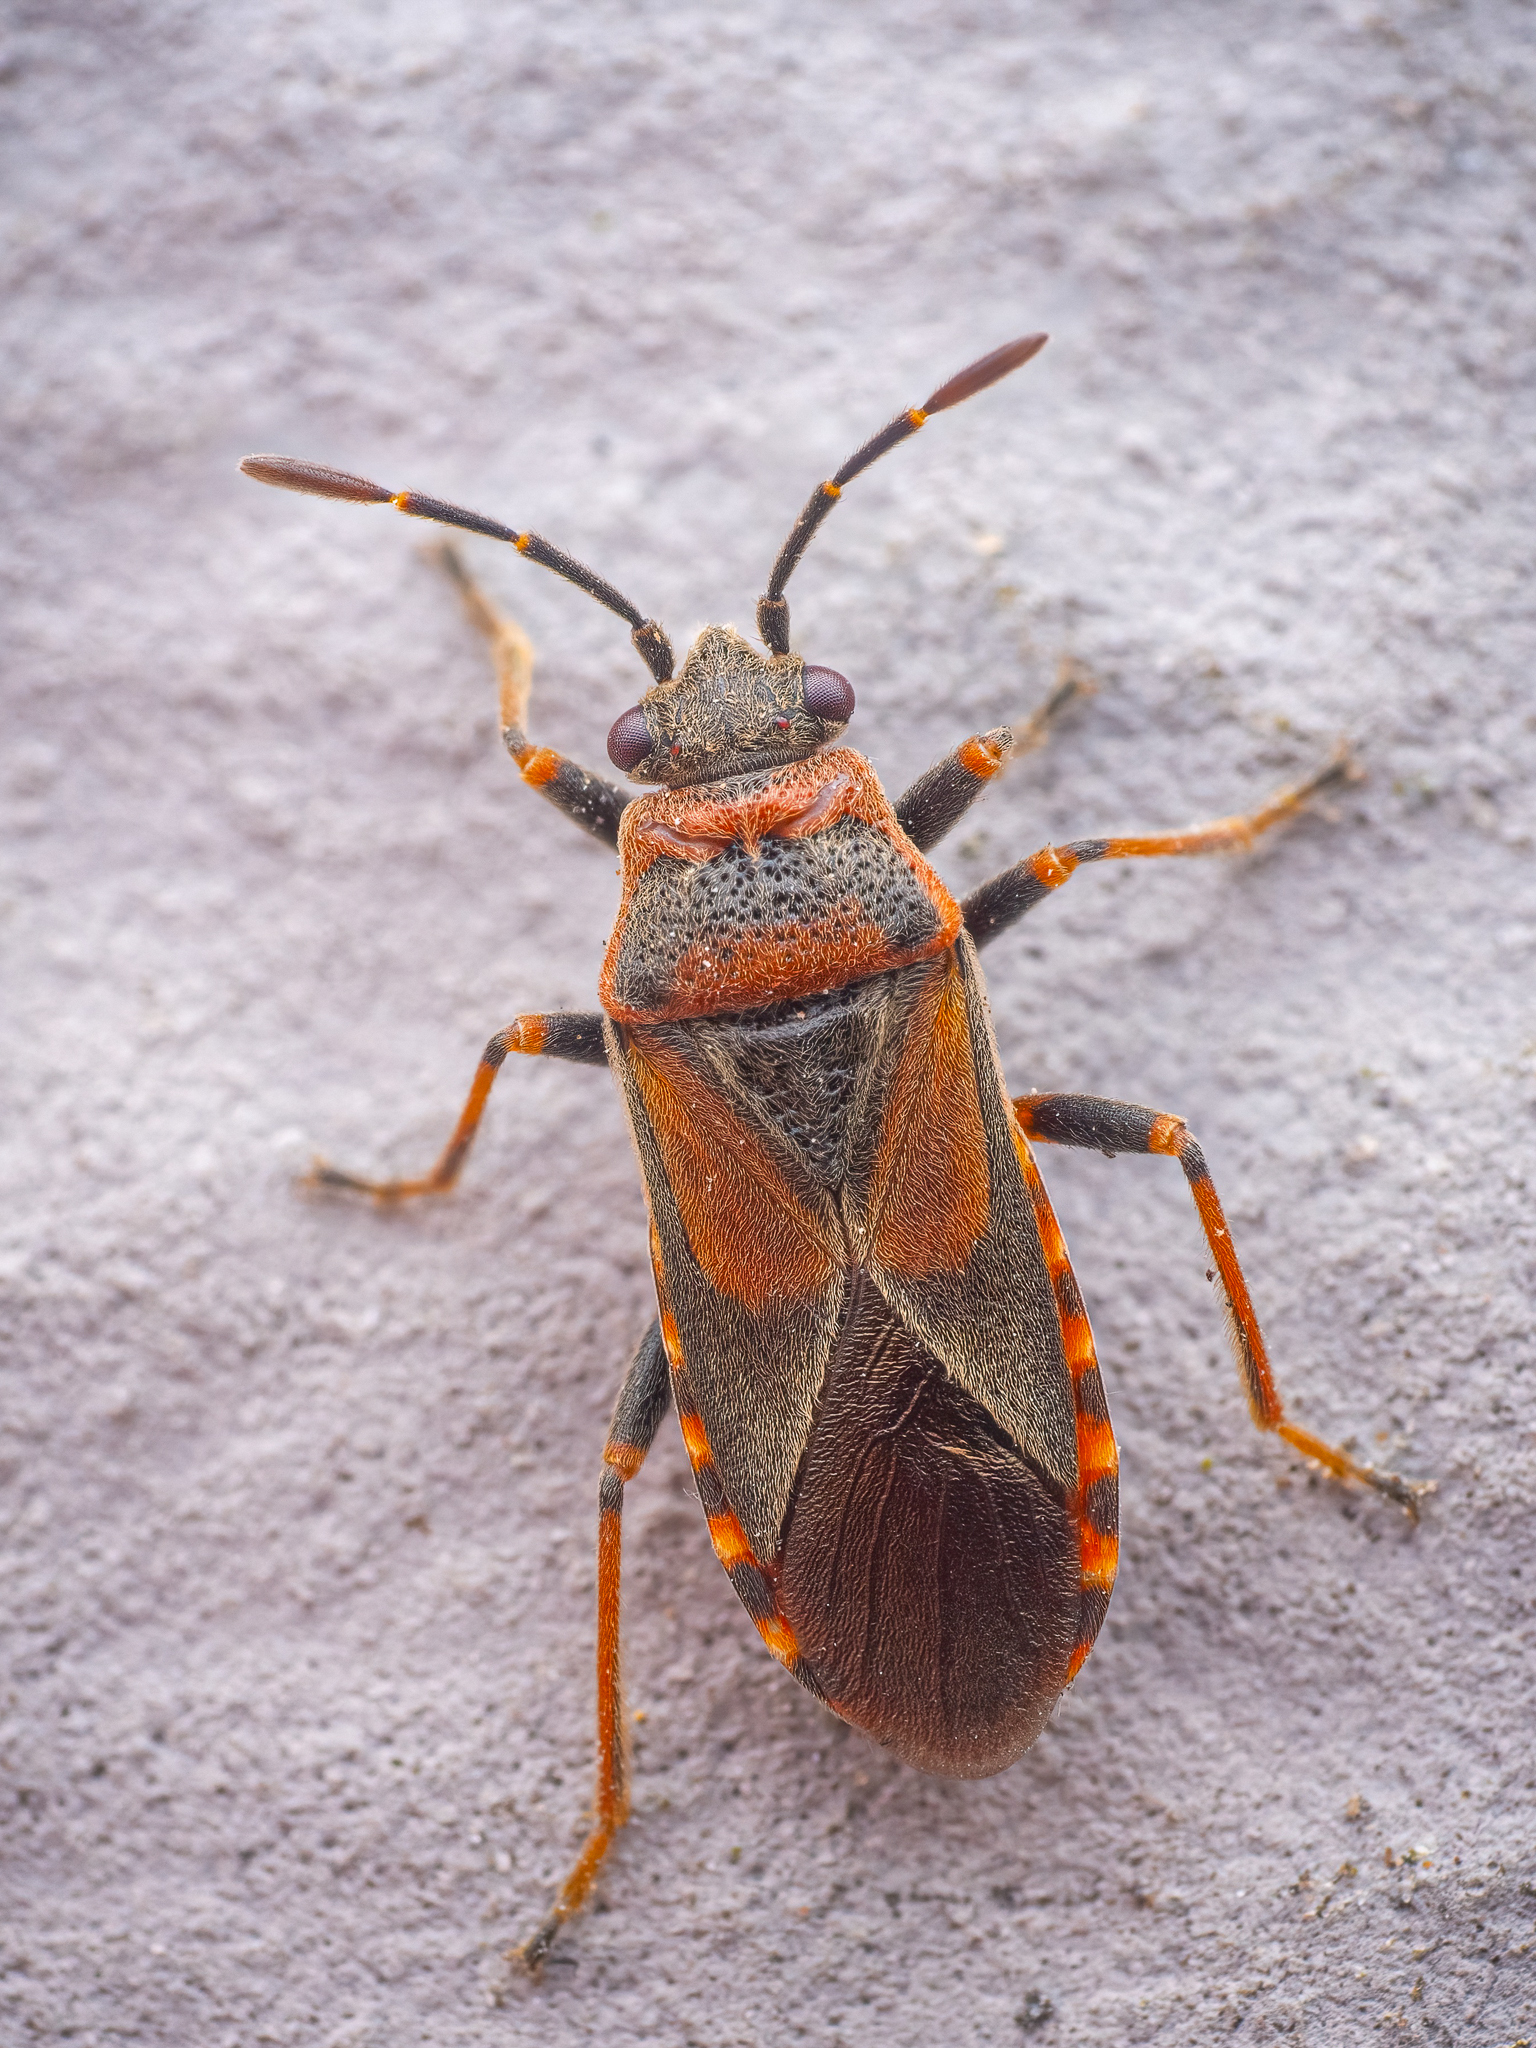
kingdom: Animalia
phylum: Arthropoda
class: Insecta
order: Hemiptera
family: Lygaeidae
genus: Arocatus
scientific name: Arocatus melanocephalus
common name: Lygaeid bug
